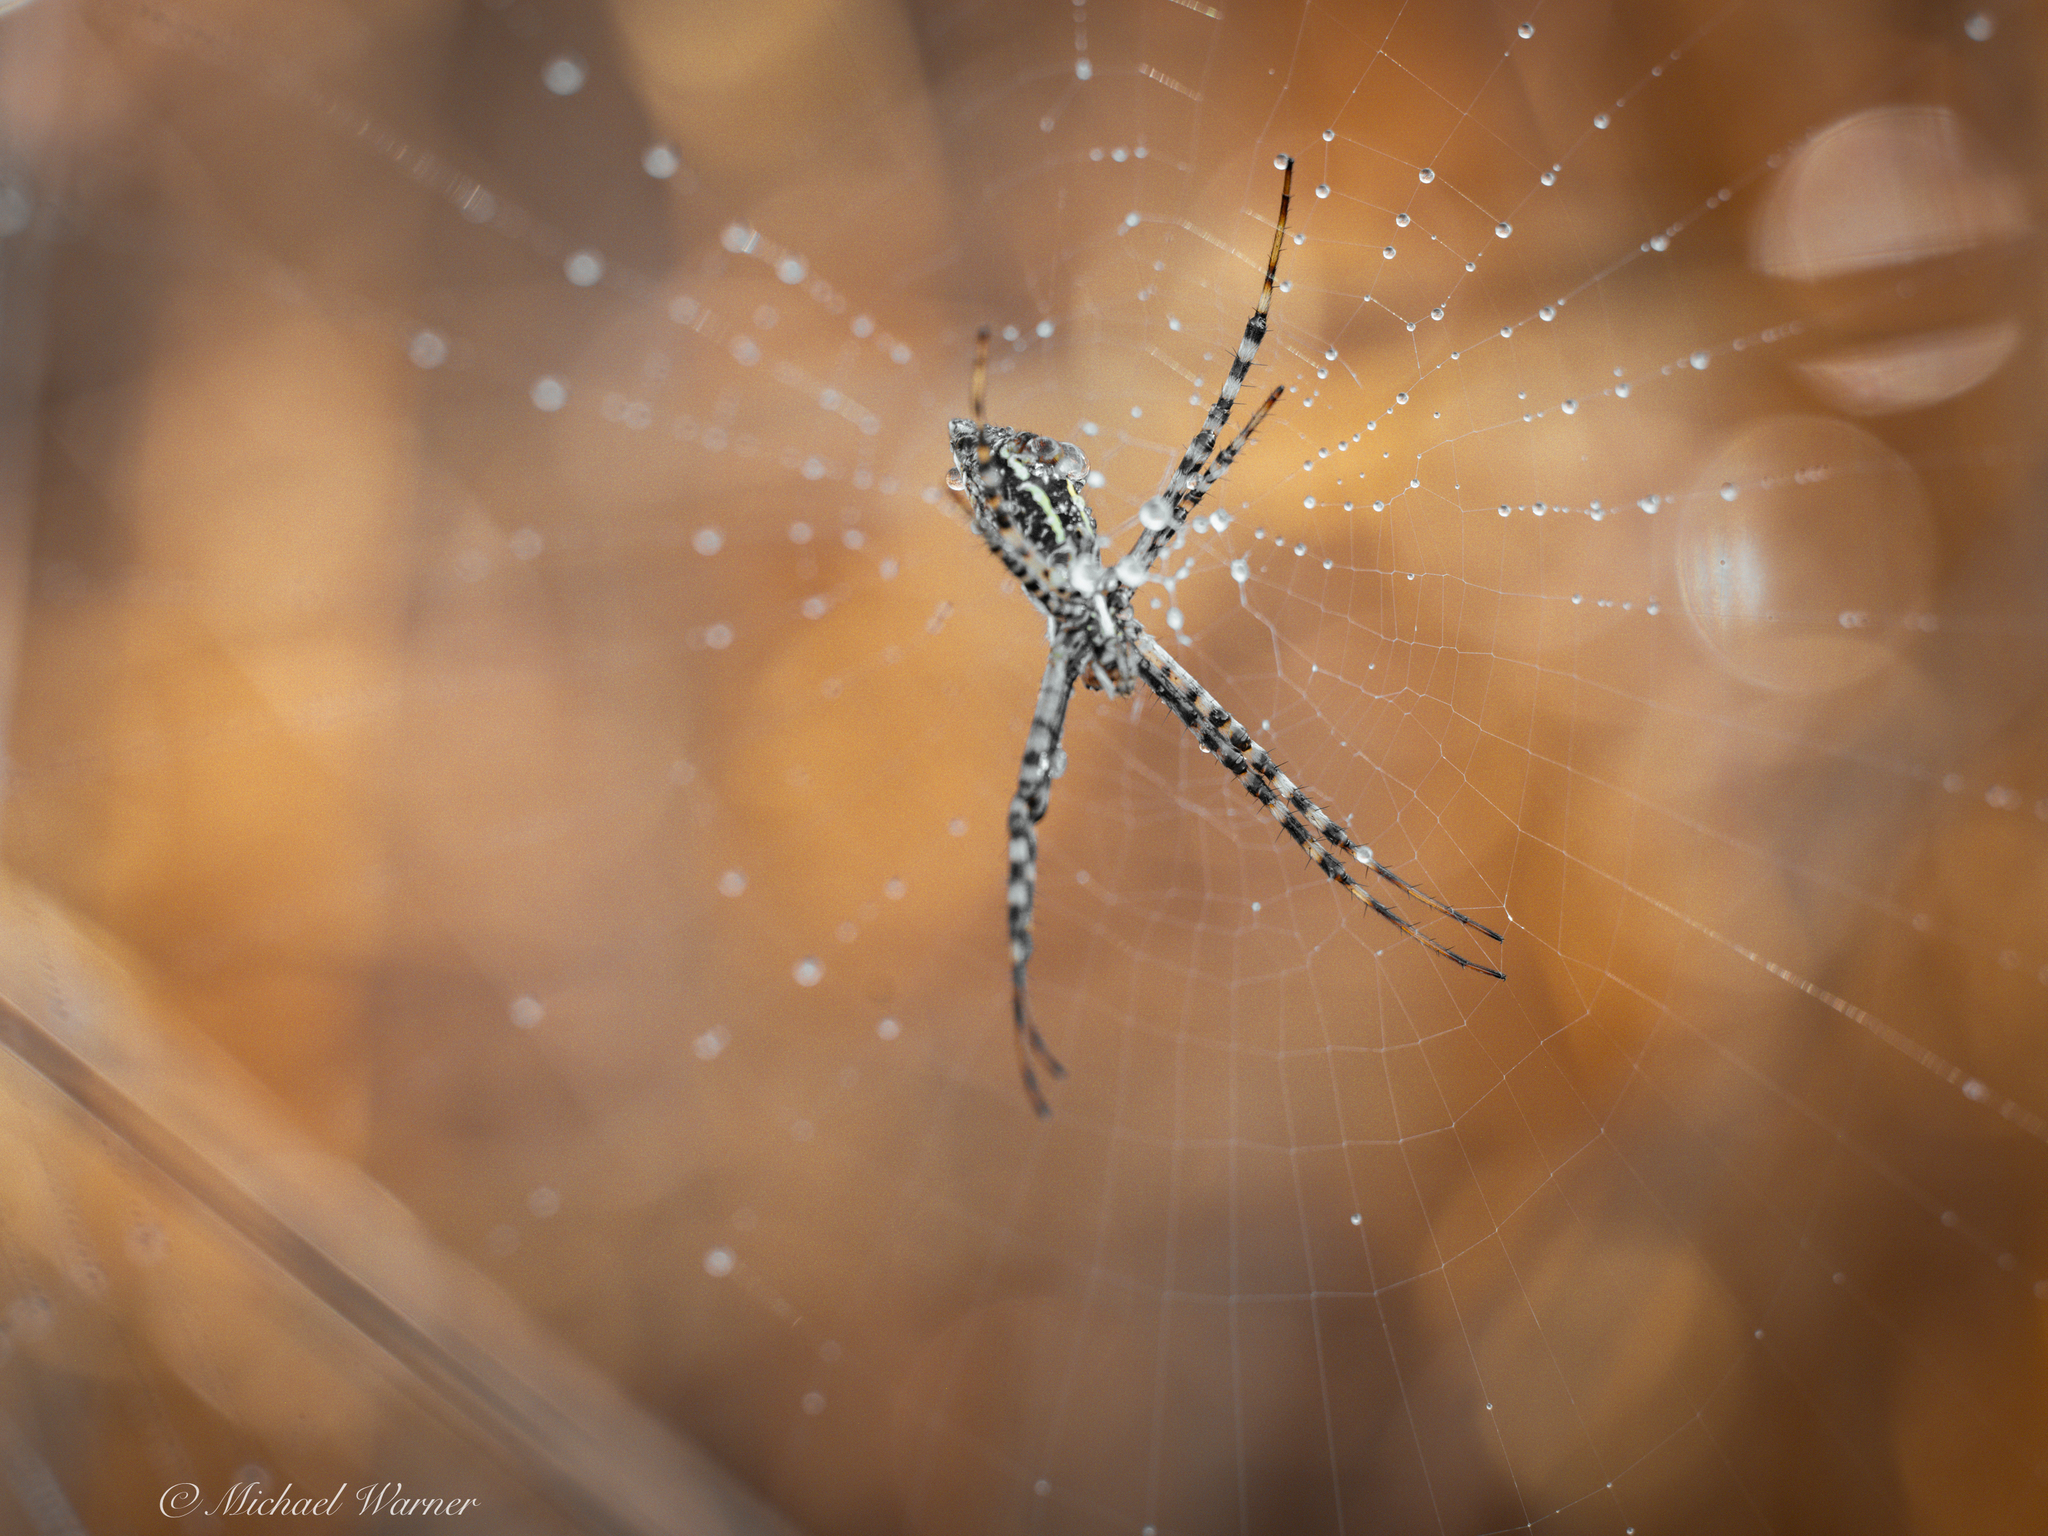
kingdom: Animalia
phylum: Arthropoda
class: Arachnida
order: Araneae
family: Araneidae
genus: Argiope
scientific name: Argiope trifasciata
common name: Banded garden spider
